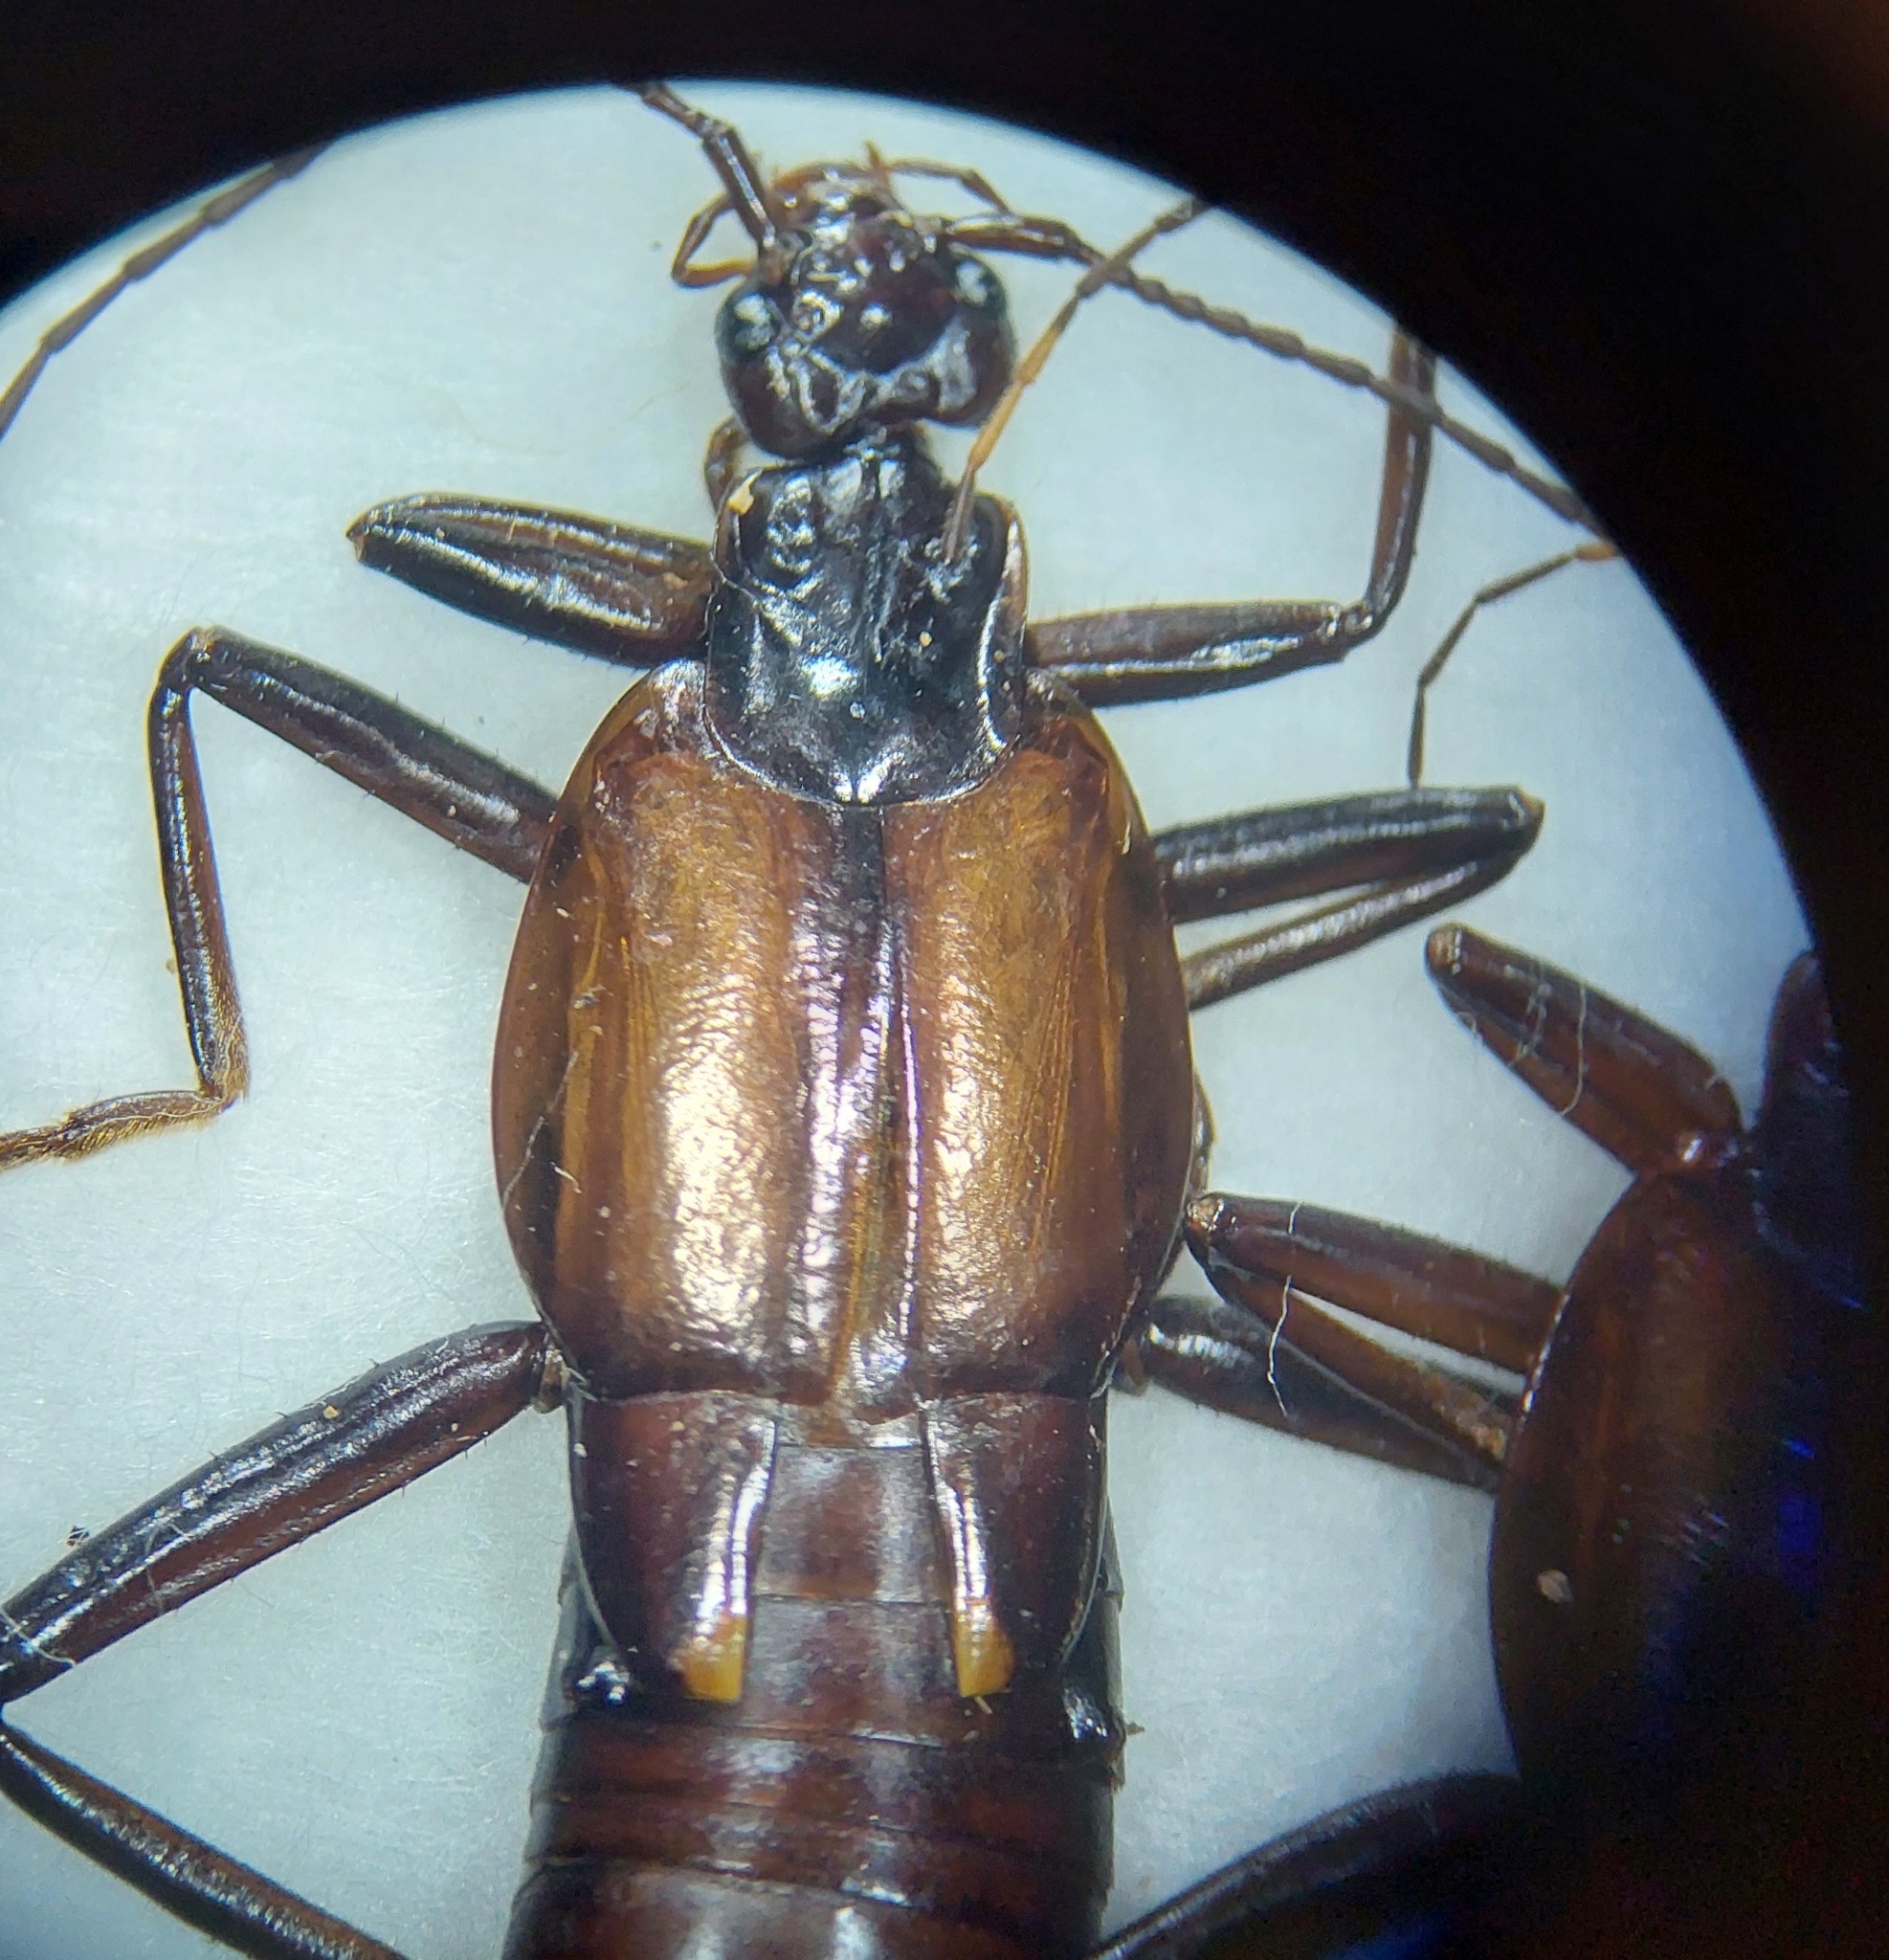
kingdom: Animalia
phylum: Arthropoda
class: Insecta
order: Dermaptera
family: Chelisochidae
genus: Chelisochella
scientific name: Chelisochella superba
